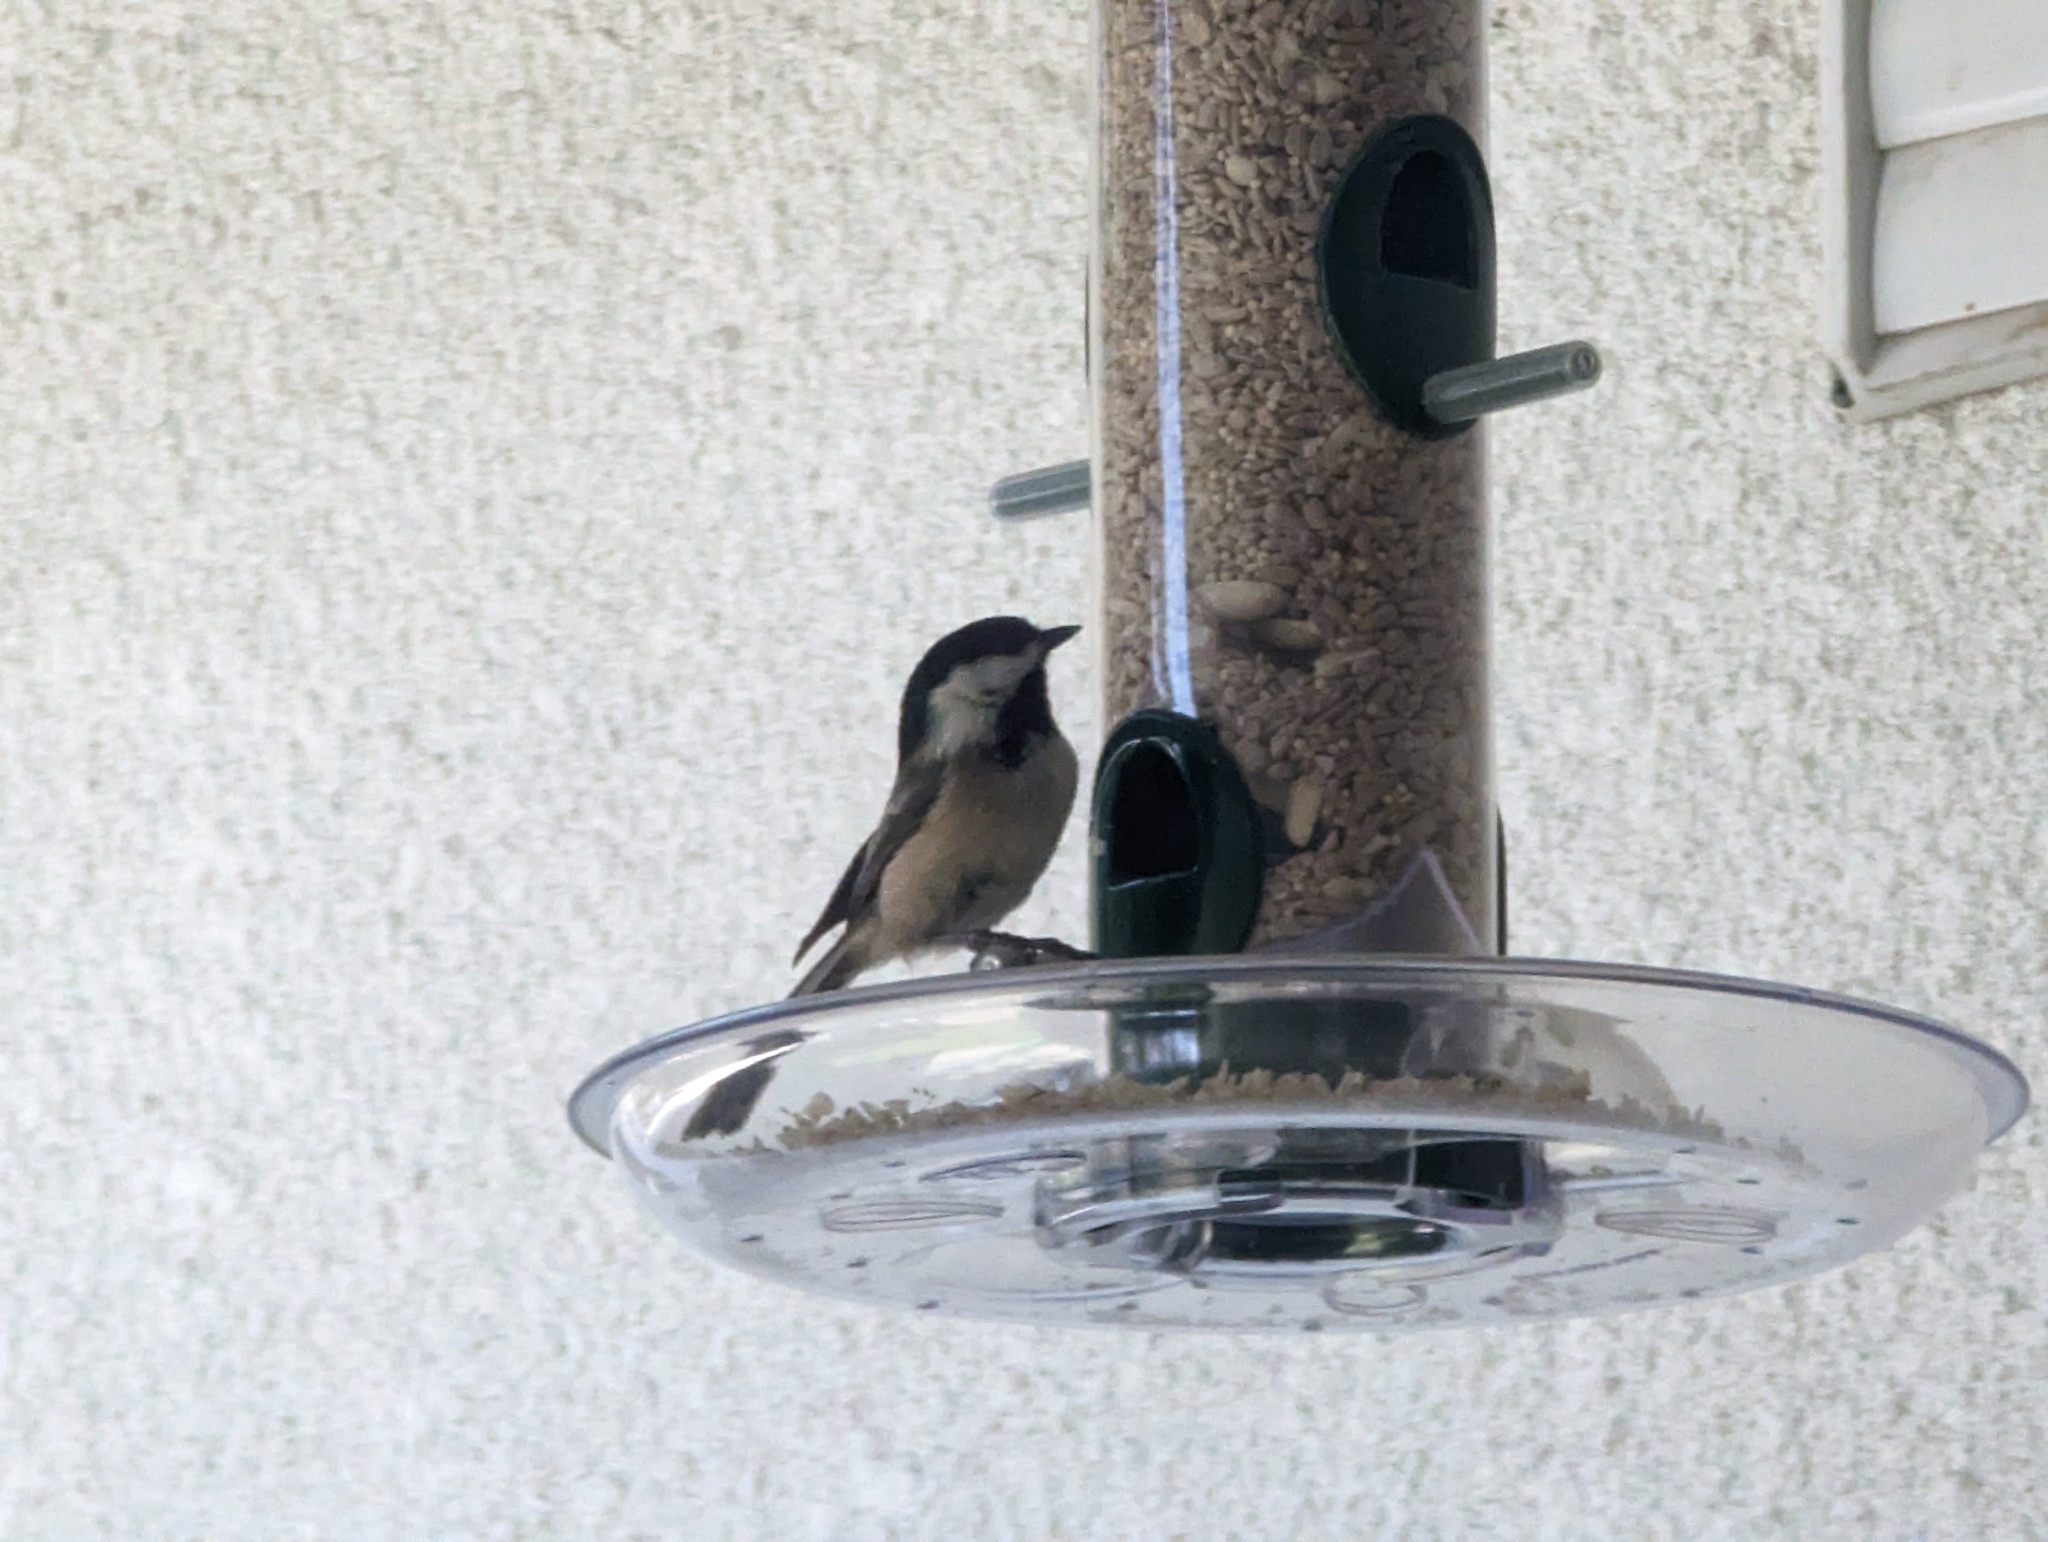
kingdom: Animalia
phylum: Chordata
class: Aves
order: Passeriformes
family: Paridae
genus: Poecile
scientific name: Poecile atricapillus
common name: Black-capped chickadee
